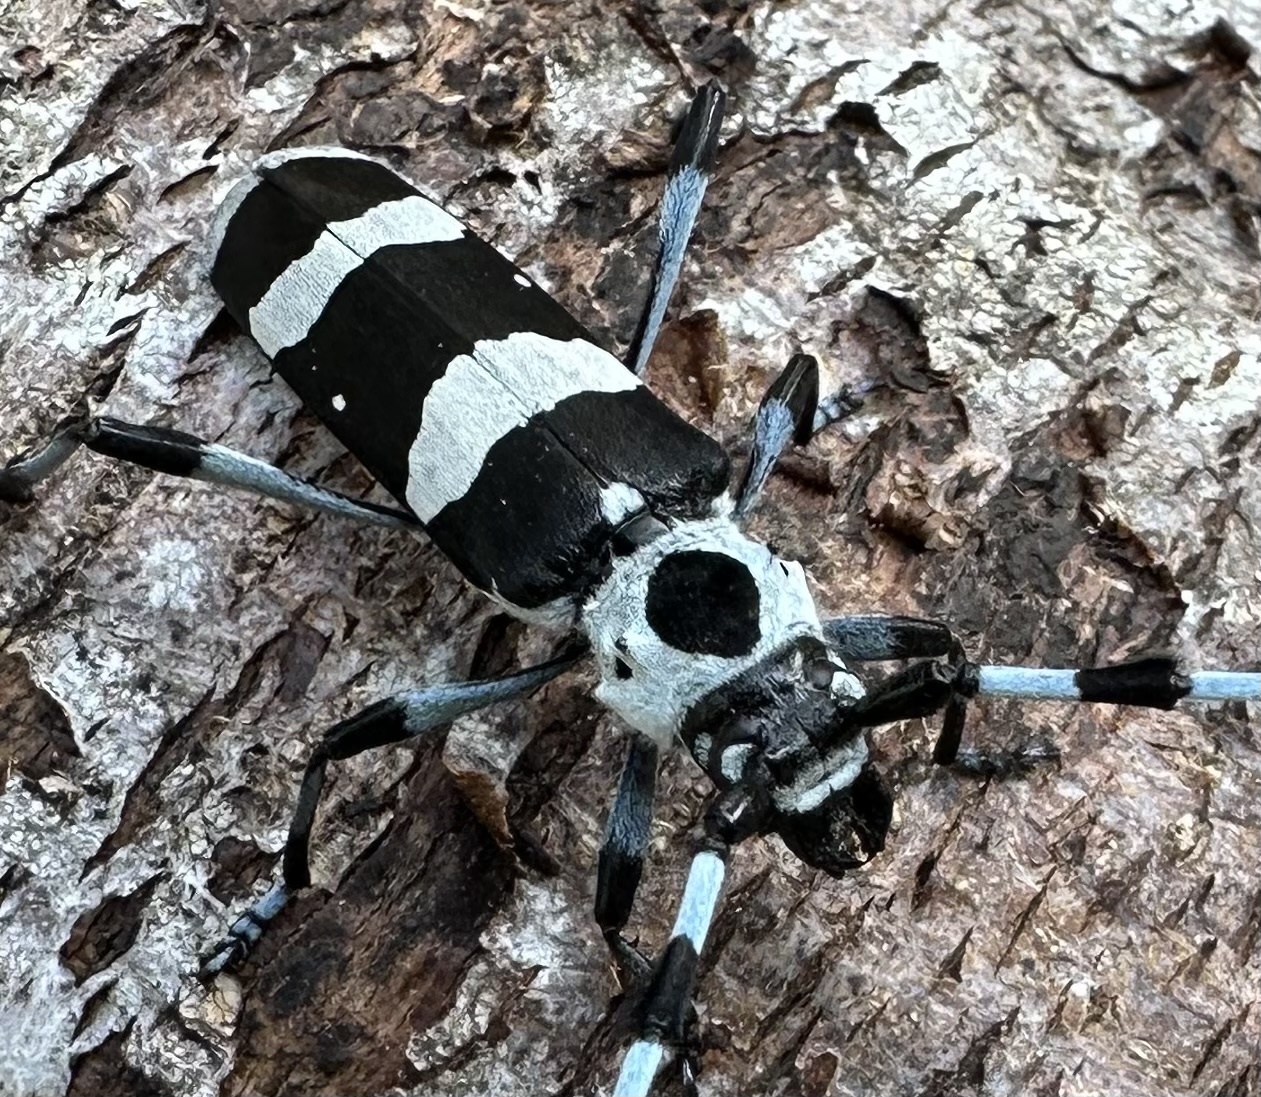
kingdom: Animalia
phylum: Arthropoda
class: Insecta
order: Coleoptera
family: Cerambycidae
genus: Rosalia
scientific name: Rosalia funebris
